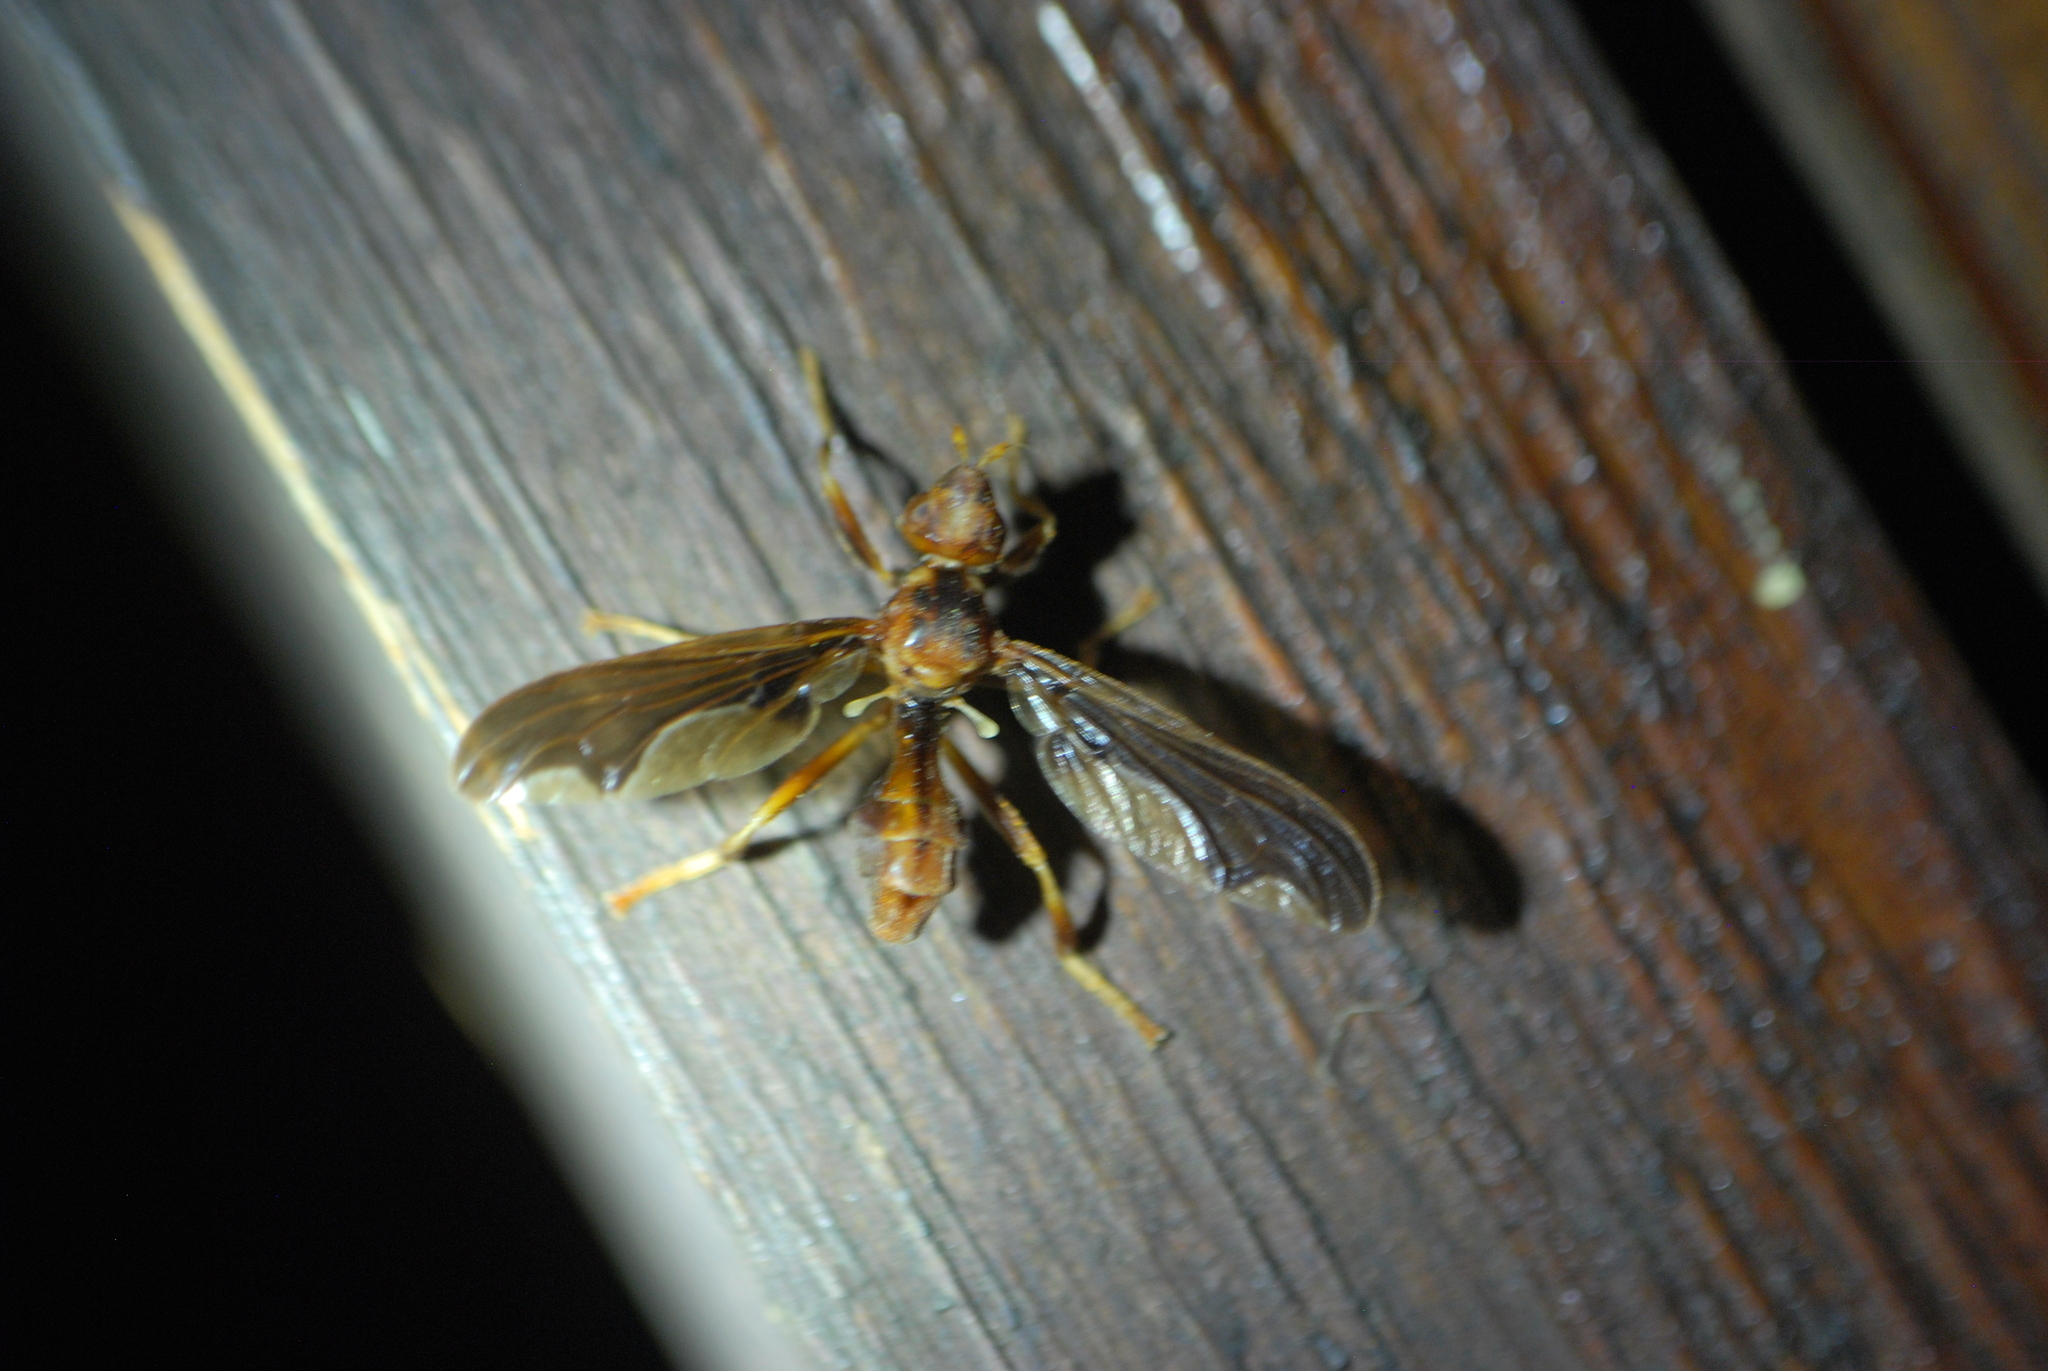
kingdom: Animalia
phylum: Arthropoda
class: Insecta
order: Diptera
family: Pyrgotidae
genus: Pyrgota
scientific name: Pyrgota undata
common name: Waved light fly
